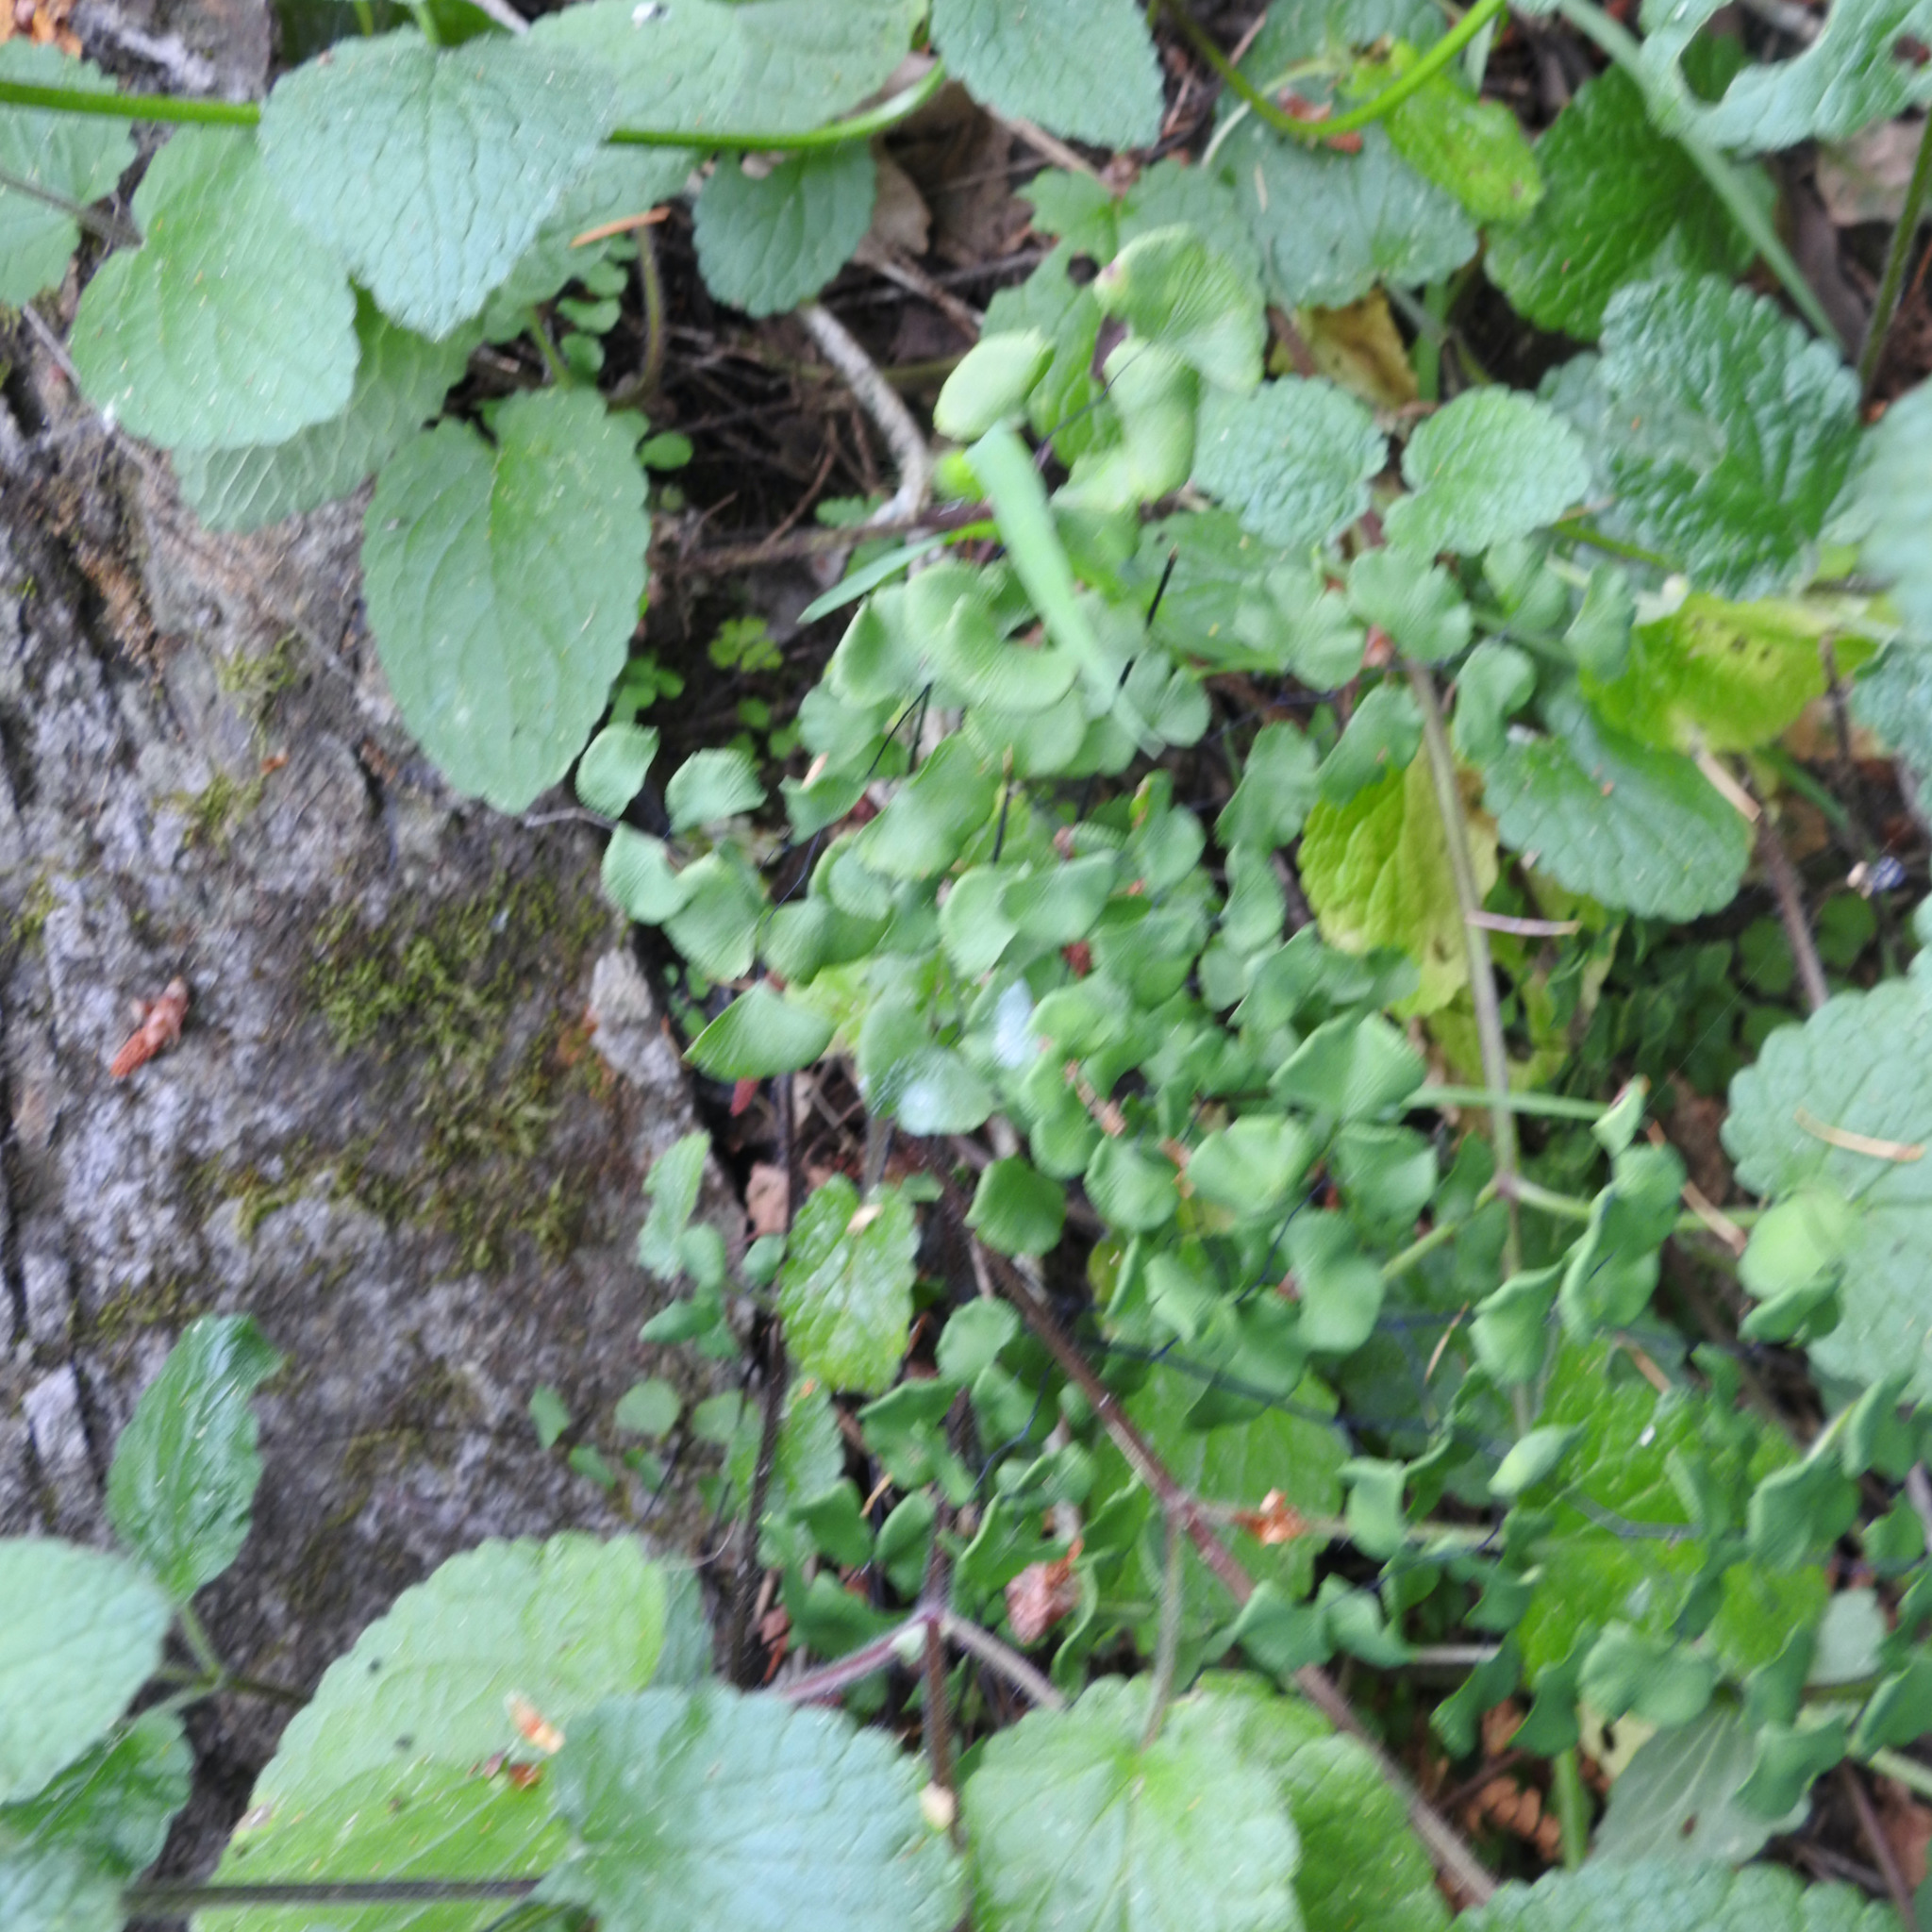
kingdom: Plantae
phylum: Tracheophyta
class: Polypodiopsida
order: Polypodiales
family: Pteridaceae
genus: Adiantum
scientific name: Adiantum jordanii
